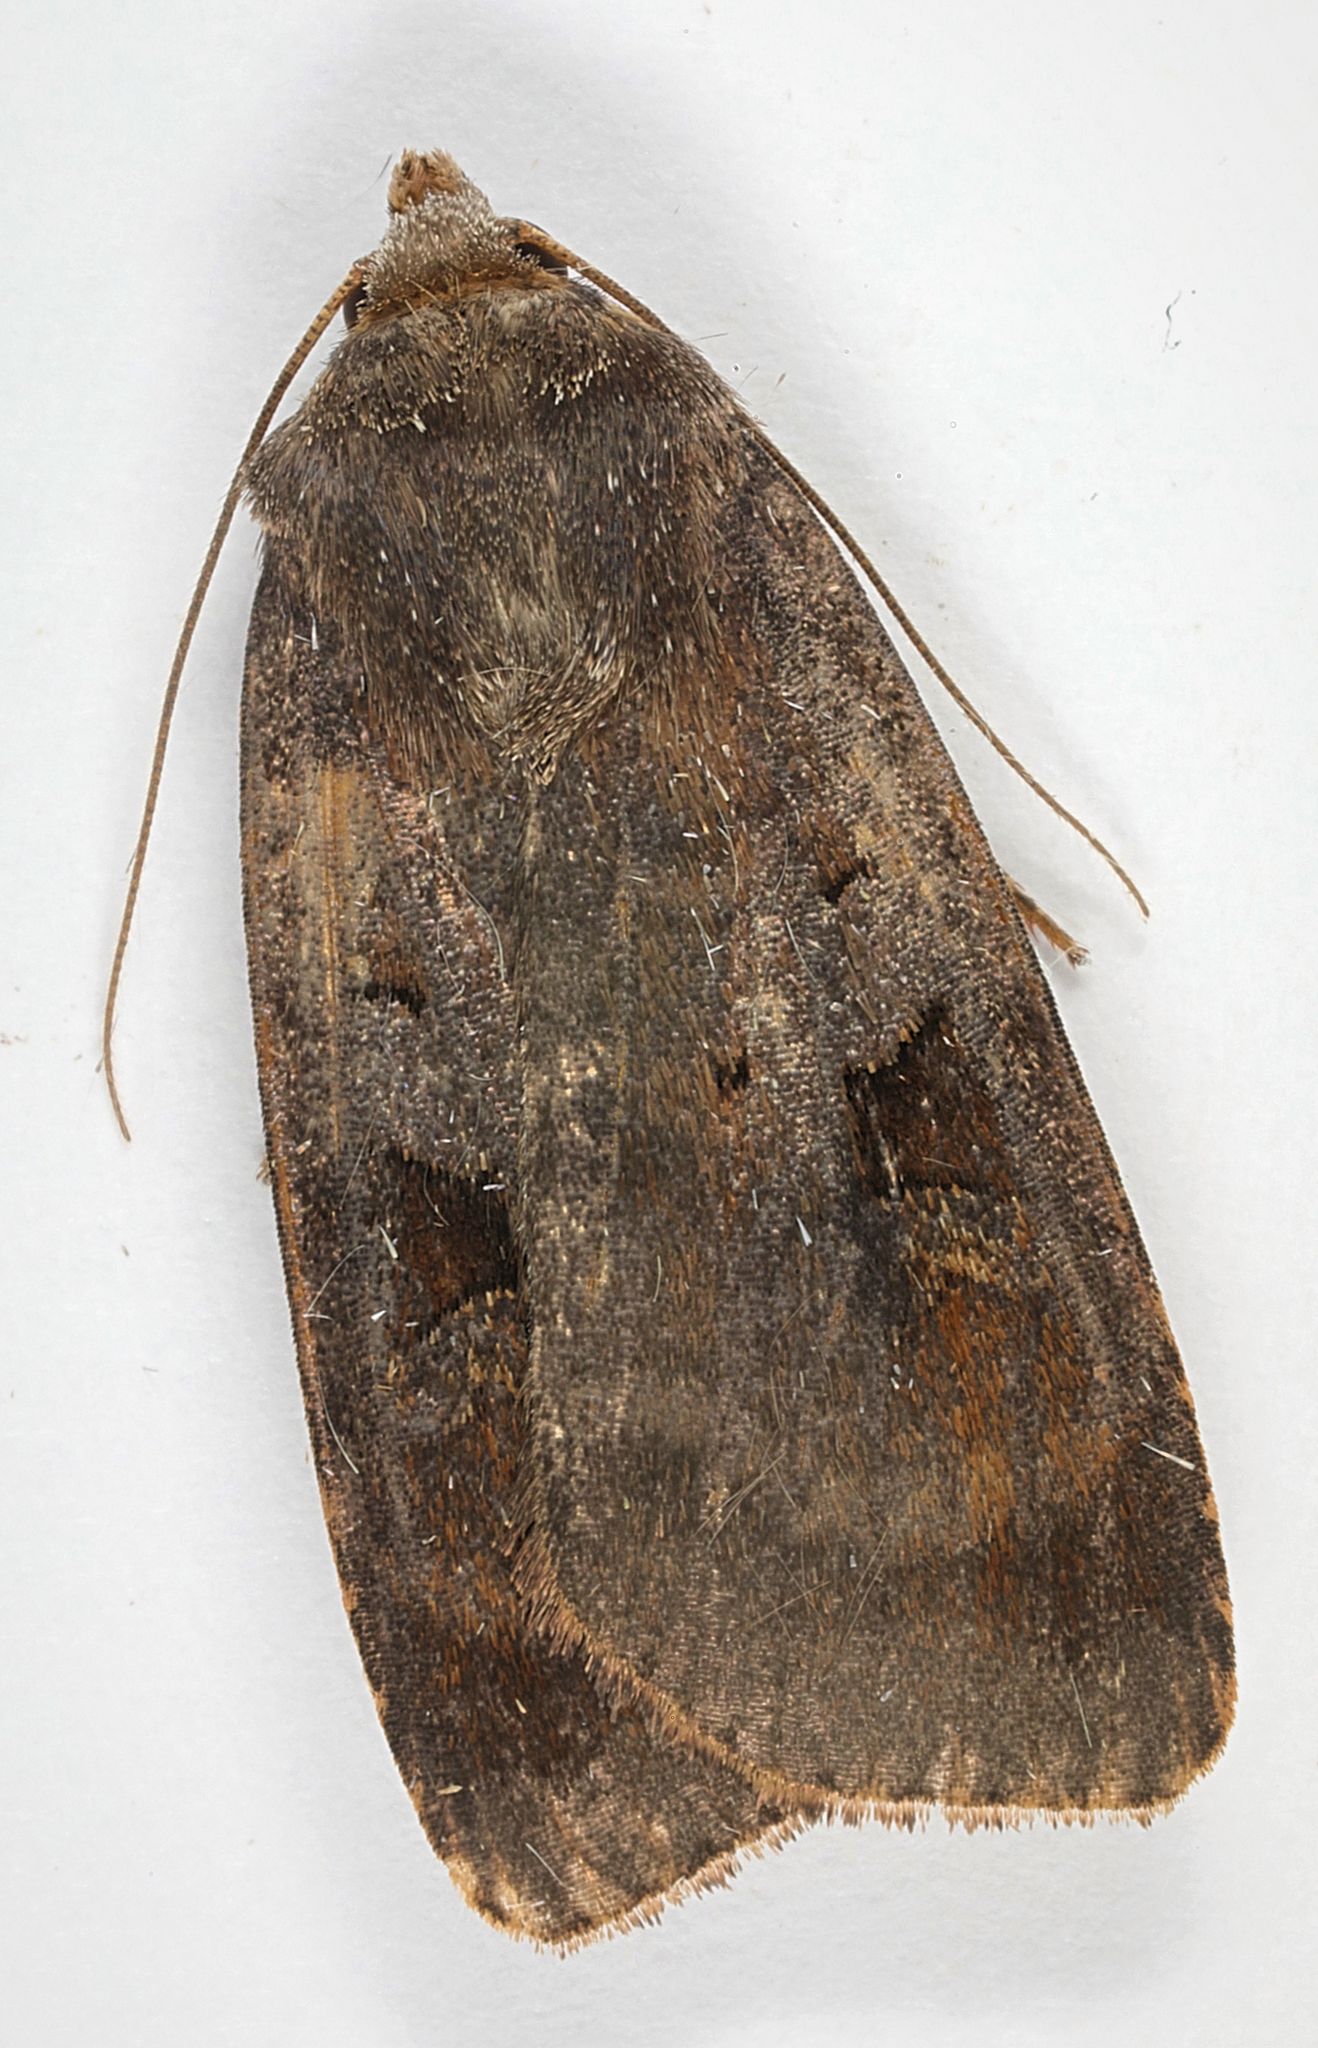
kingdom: Animalia
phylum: Arthropoda
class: Insecta
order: Lepidoptera
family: Noctuidae
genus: Diarsia
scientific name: Diarsia brunnea
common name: Purple clay
